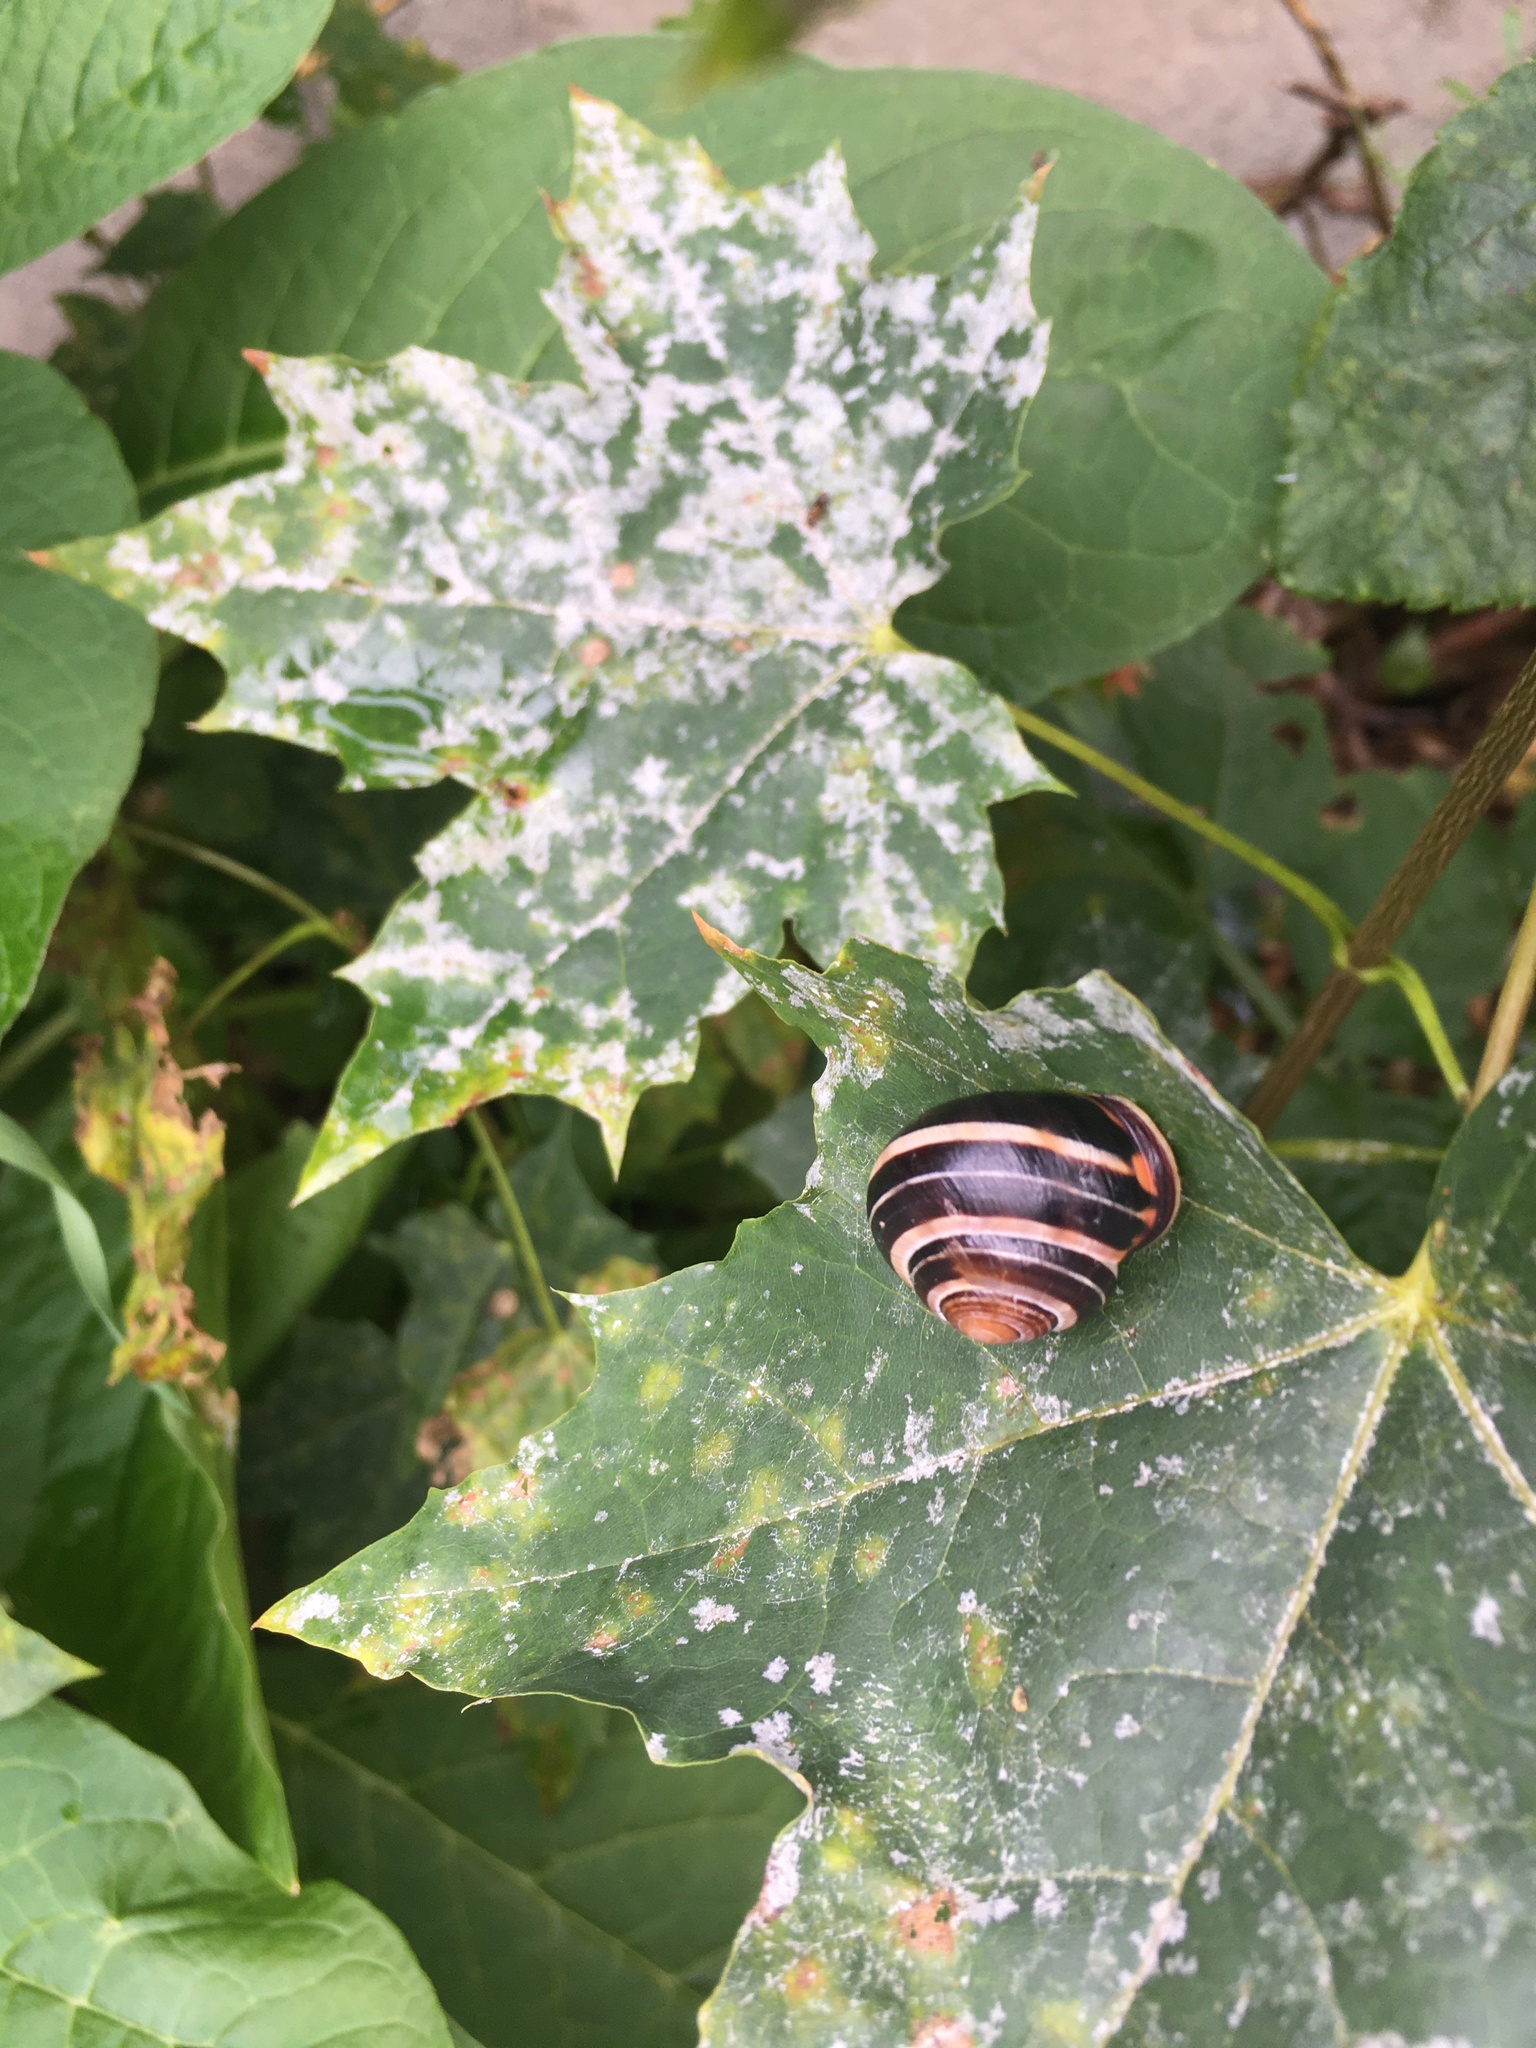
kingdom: Animalia
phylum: Mollusca
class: Gastropoda
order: Stylommatophora
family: Helicidae
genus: Cepaea
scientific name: Cepaea nemoralis
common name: Grovesnail
